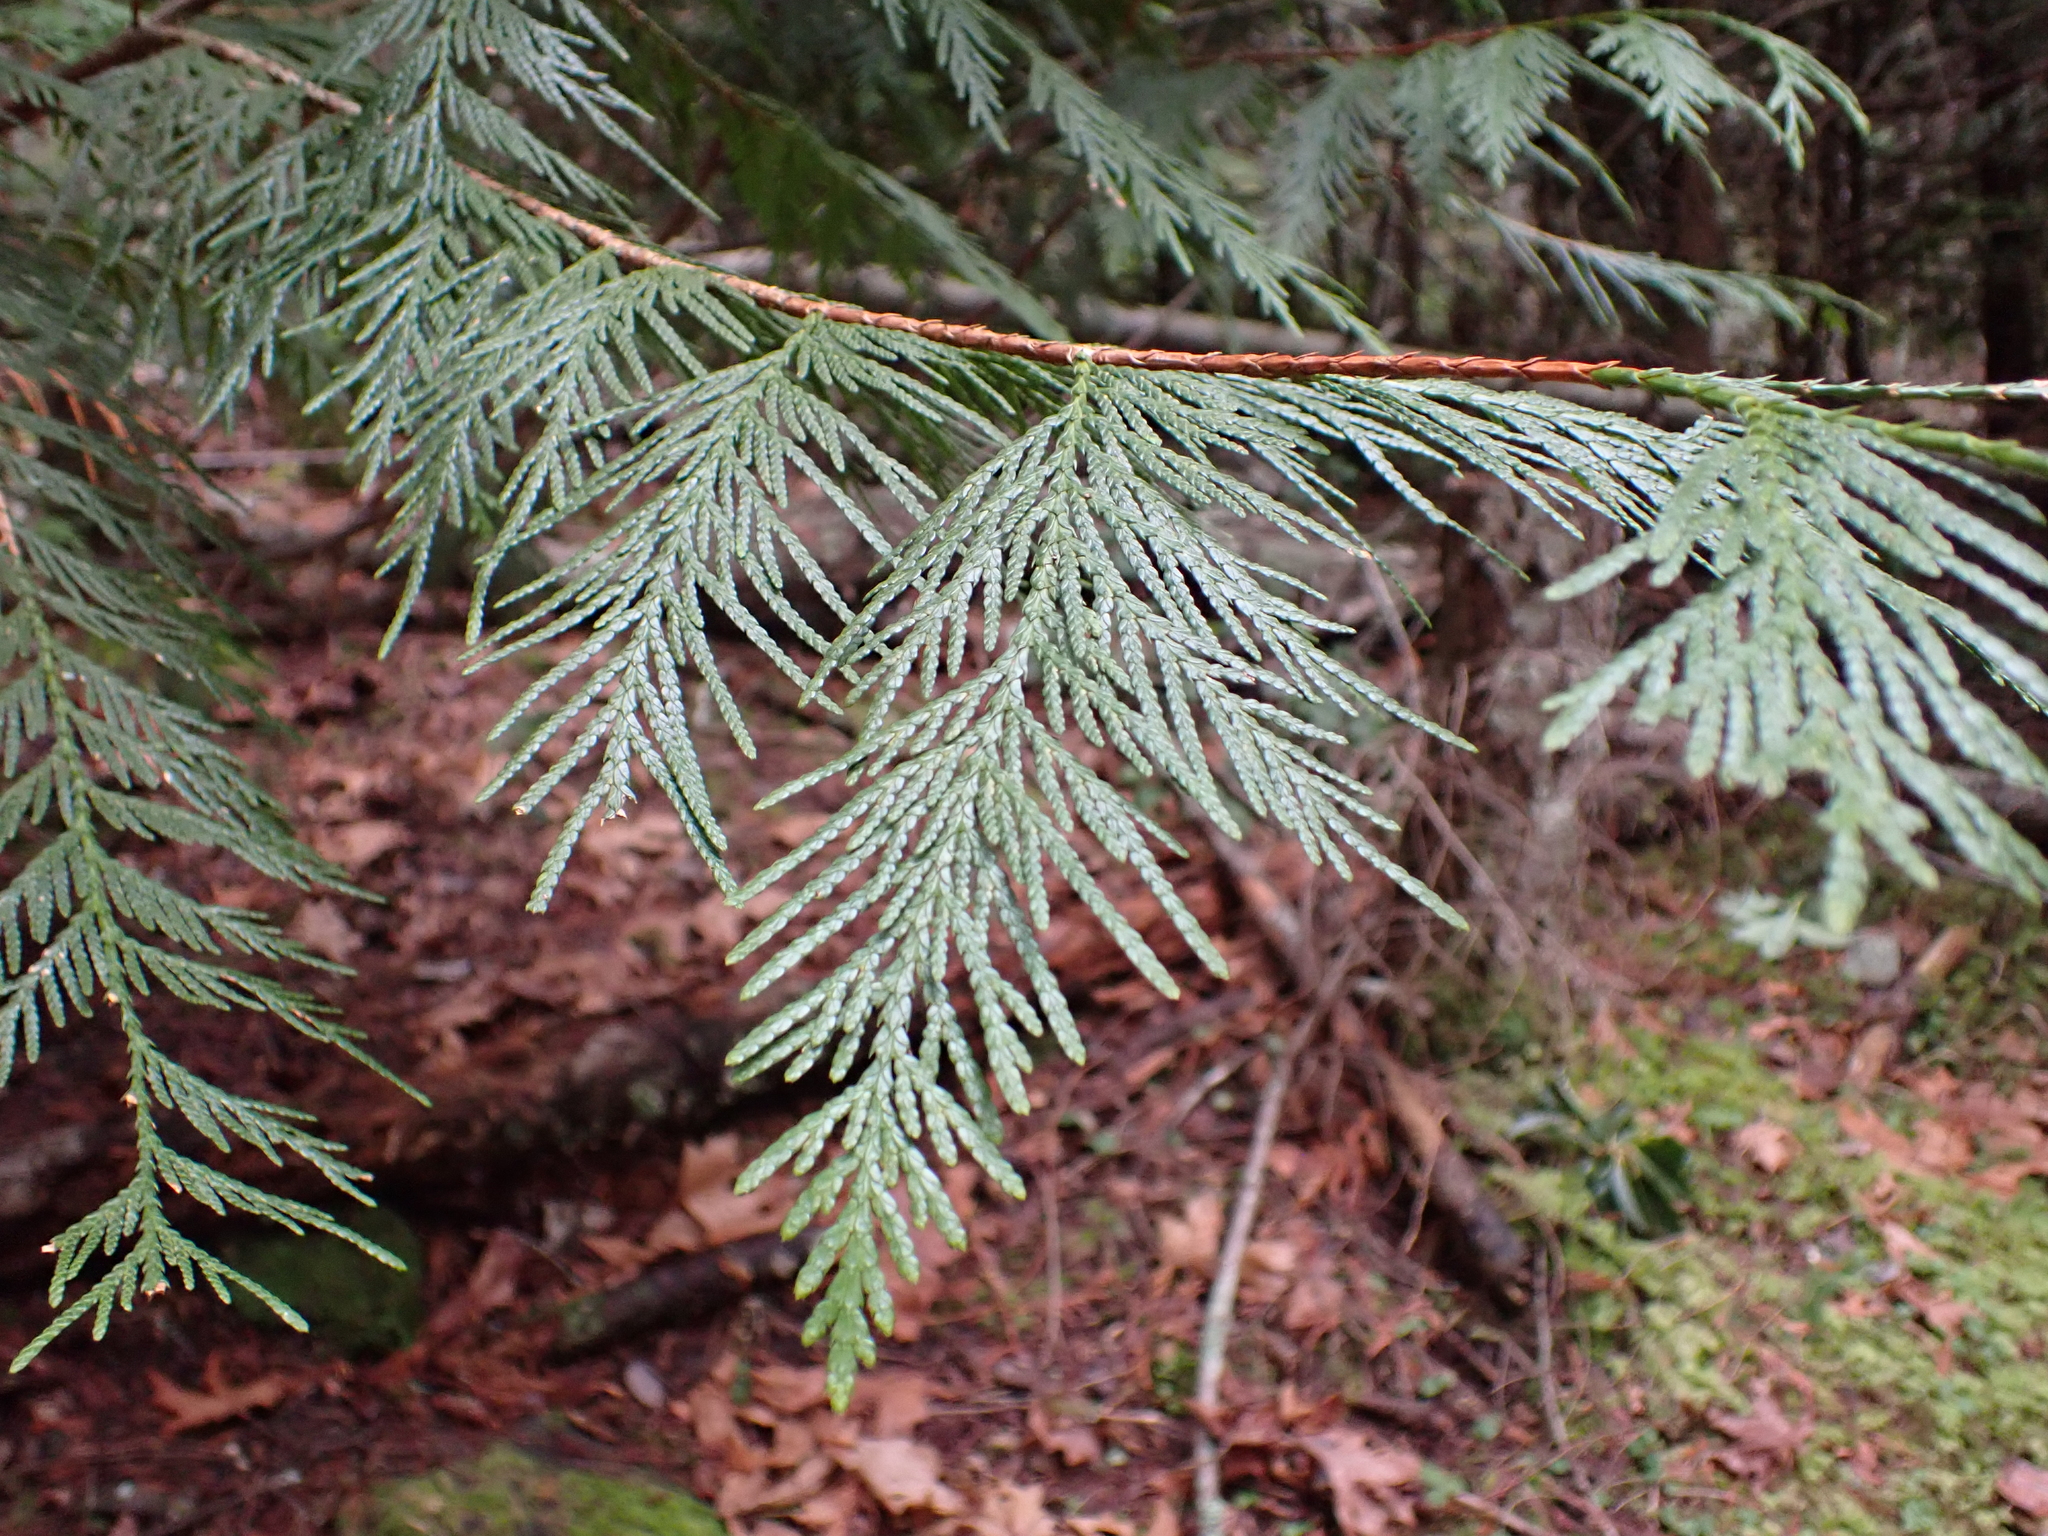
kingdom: Plantae
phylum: Tracheophyta
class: Pinopsida
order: Pinales
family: Cupressaceae
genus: Thuja
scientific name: Thuja plicata
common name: Western red-cedar
